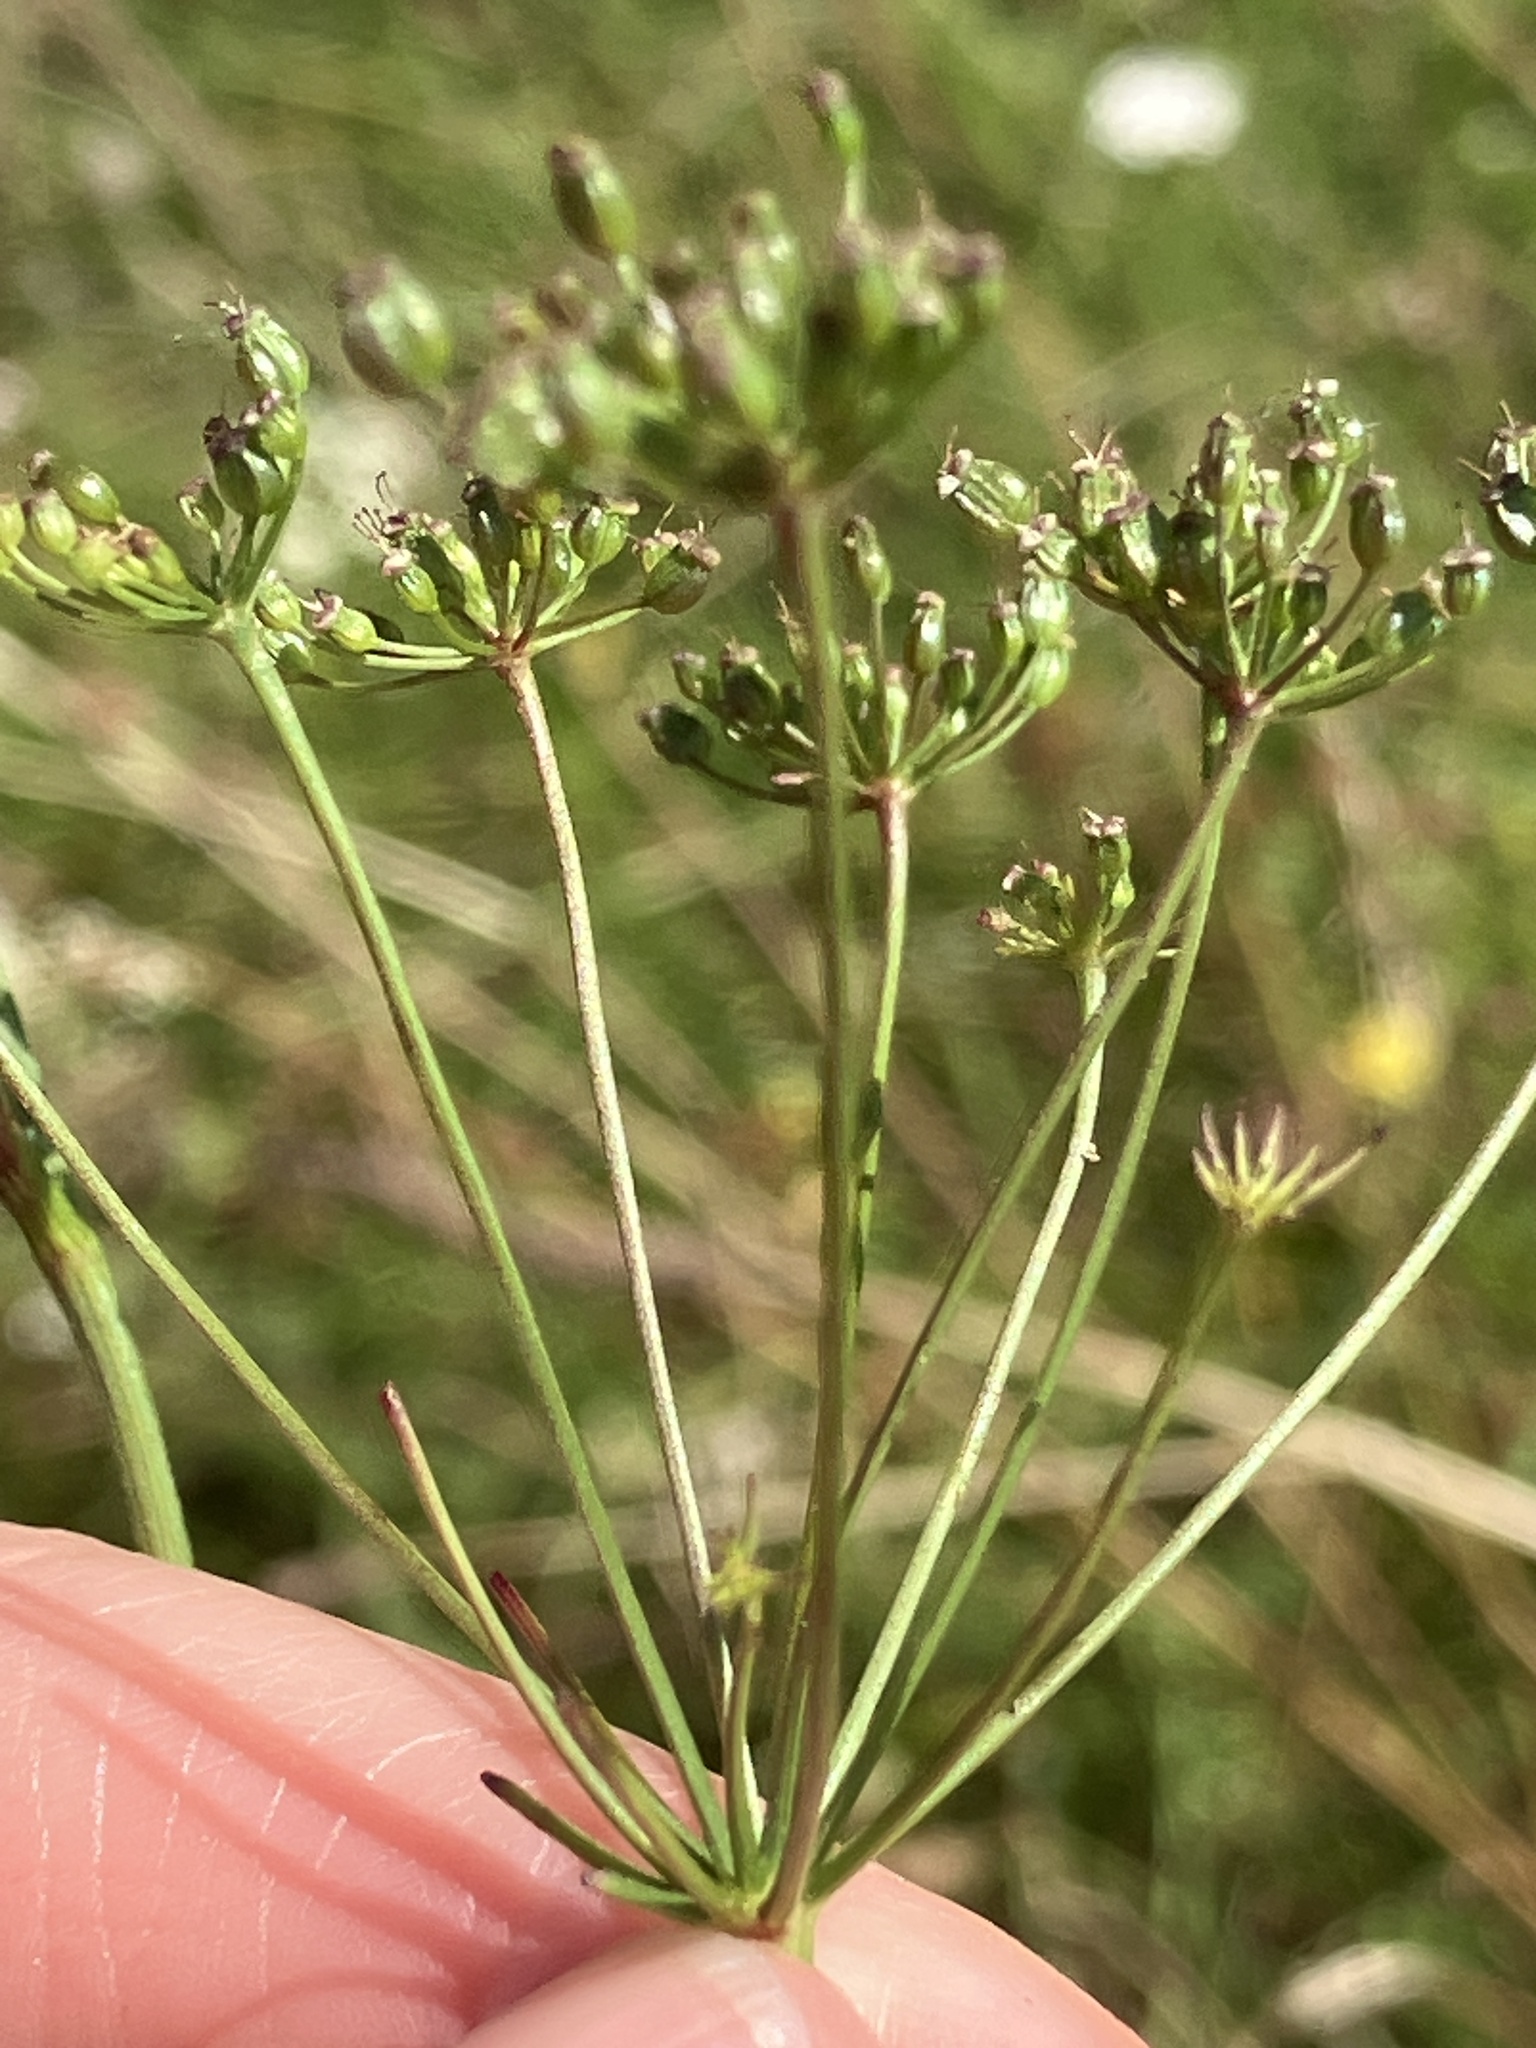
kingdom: Plantae
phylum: Tracheophyta
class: Magnoliopsida
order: Apiales
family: Apiaceae
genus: Pimpinella
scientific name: Pimpinella saxifraga
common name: Burnet-saxifrage
